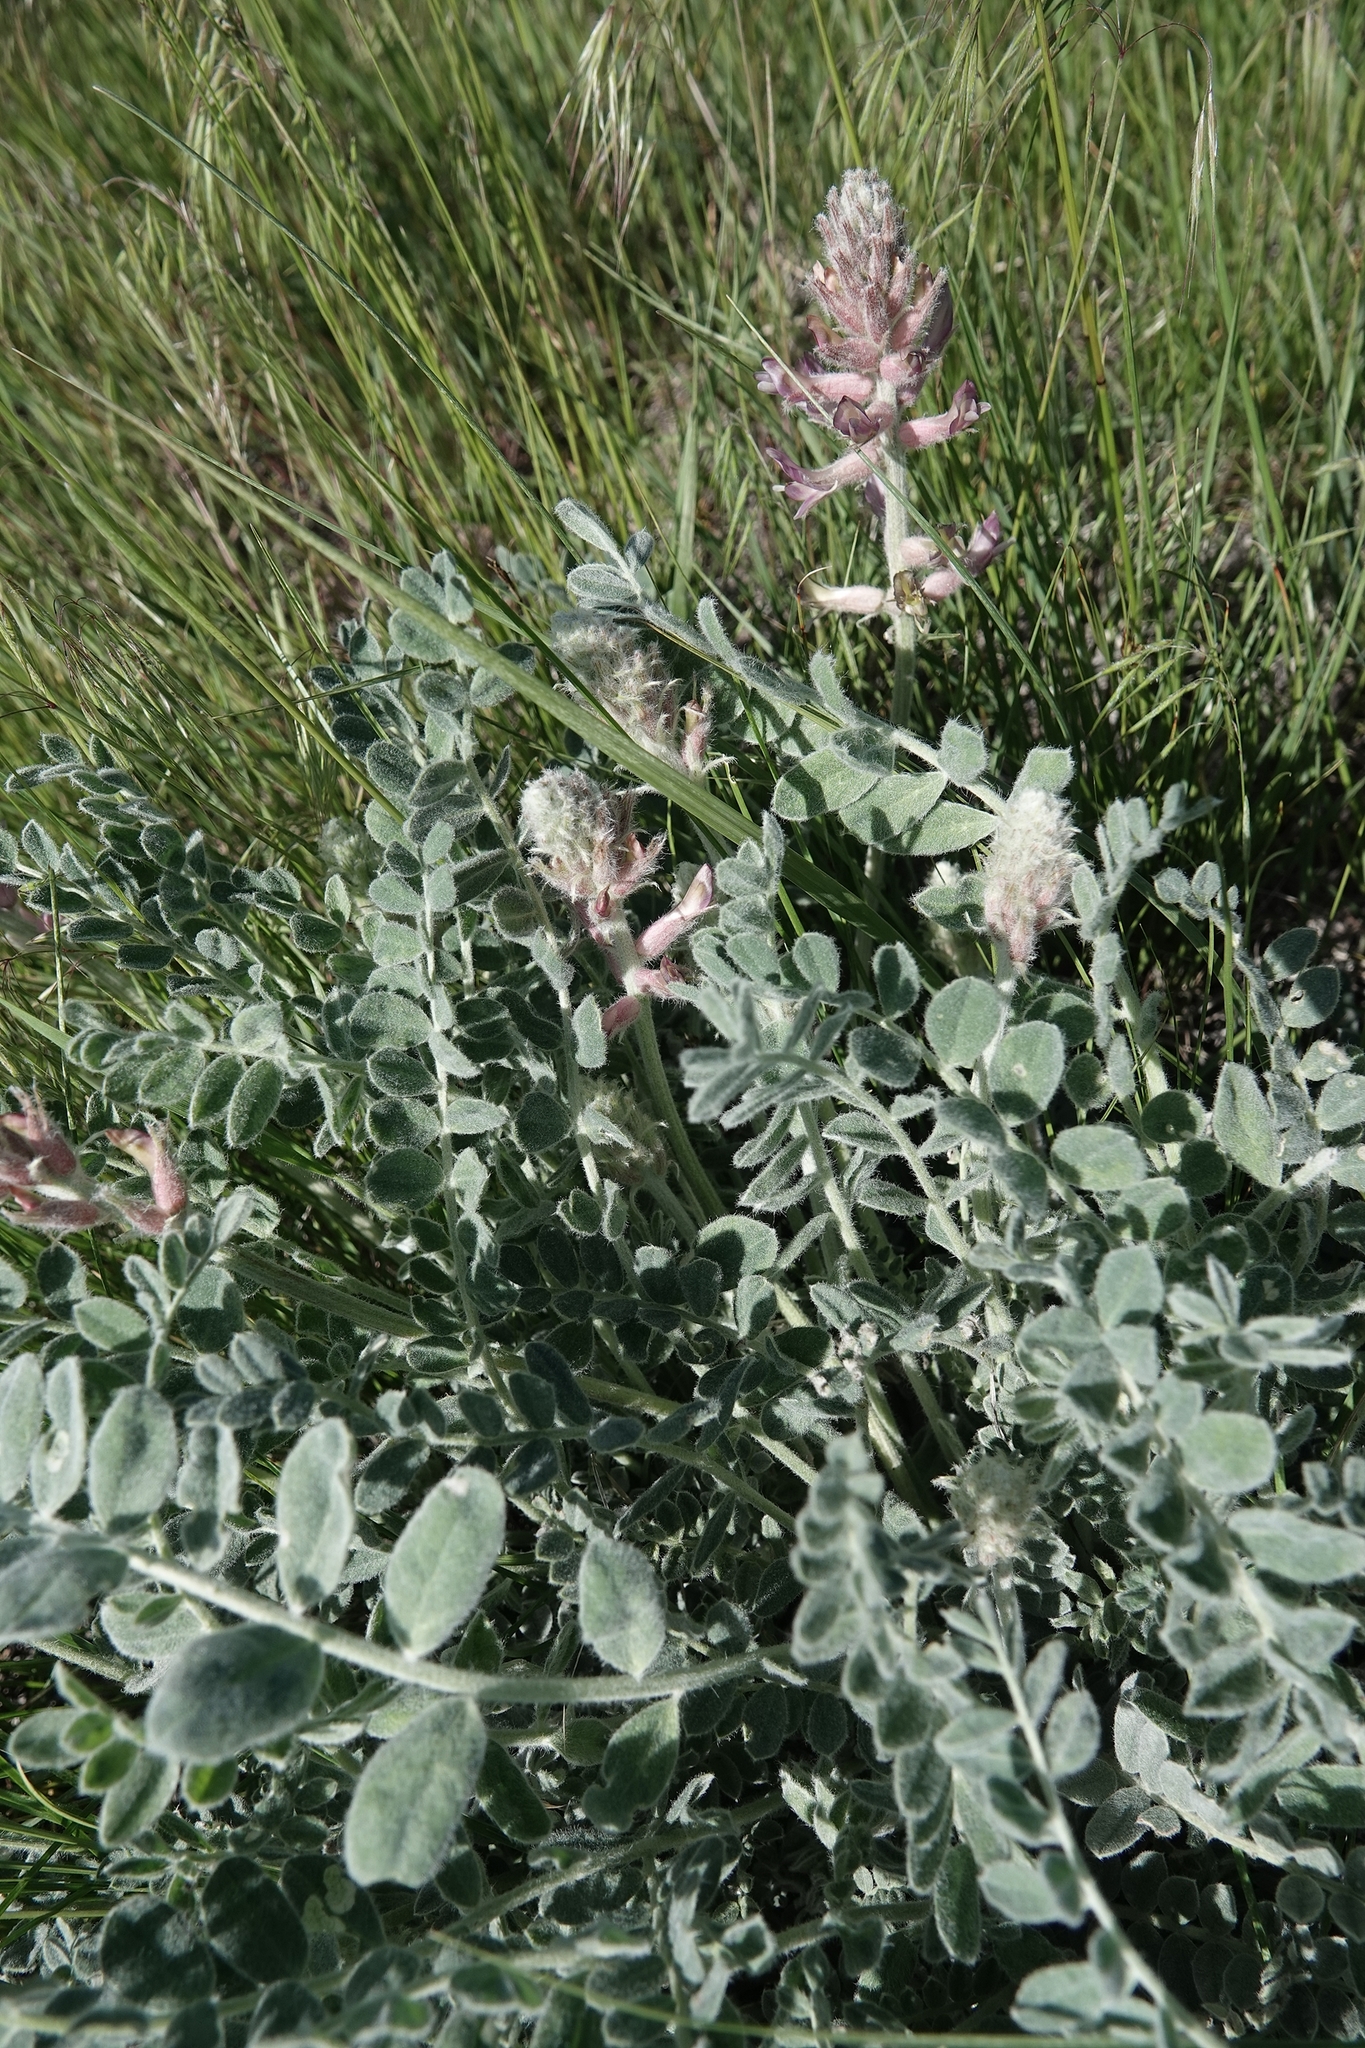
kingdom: Plantae
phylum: Tracheophyta
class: Magnoliopsida
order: Fabales
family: Fabaceae
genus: Astragalus
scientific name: Astragalus mollissimus
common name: Woolly locoweed
